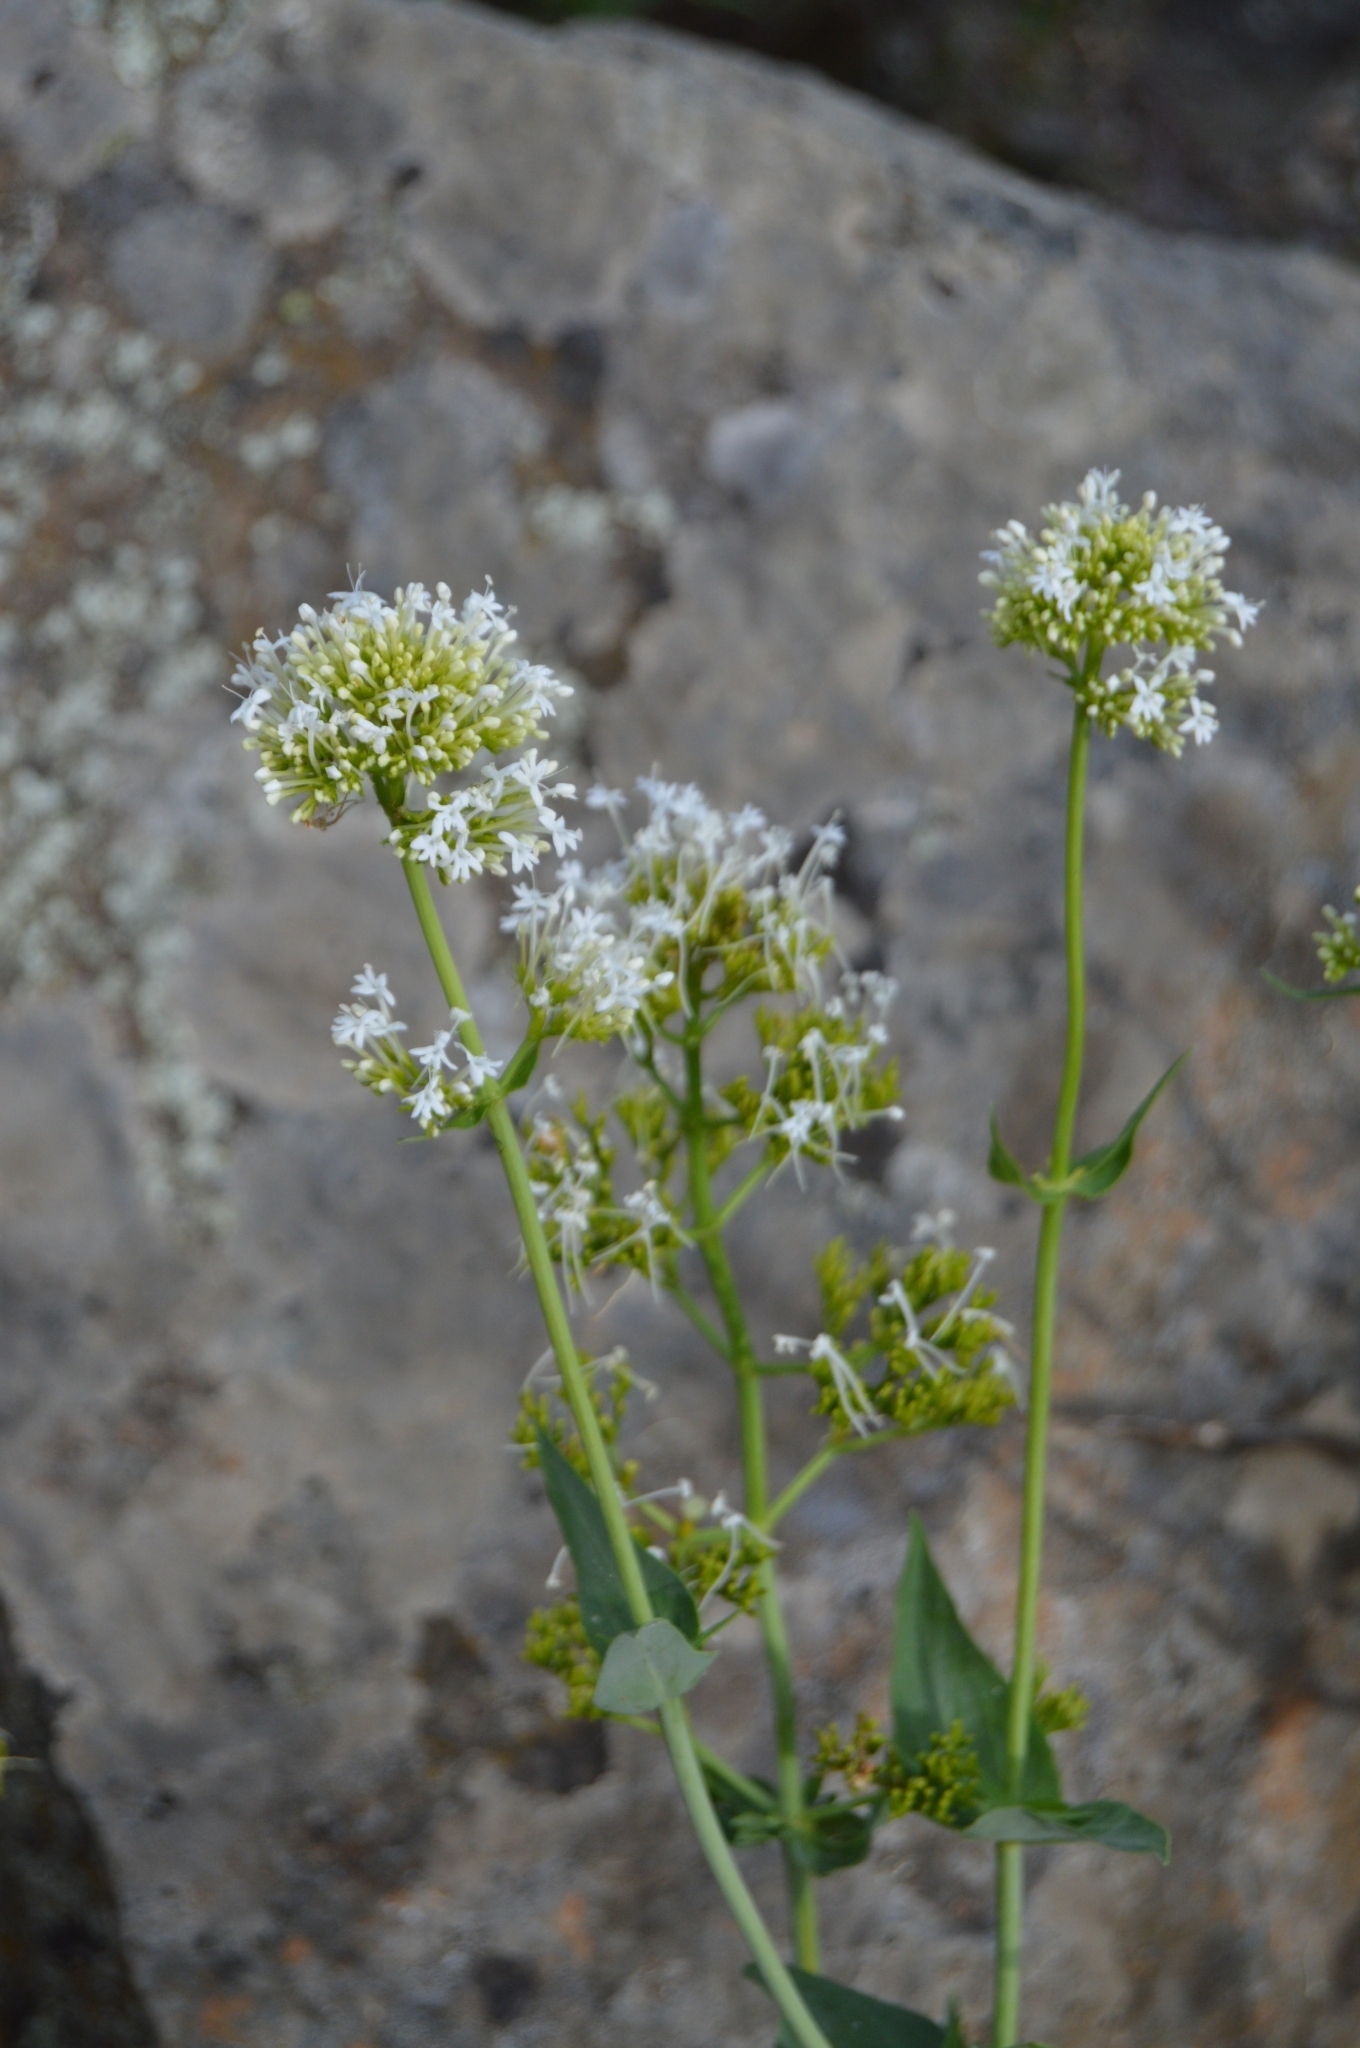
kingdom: Plantae
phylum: Tracheophyta
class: Magnoliopsida
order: Dipsacales
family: Caprifoliaceae
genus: Centranthus
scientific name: Centranthus ruber
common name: Red valerian
